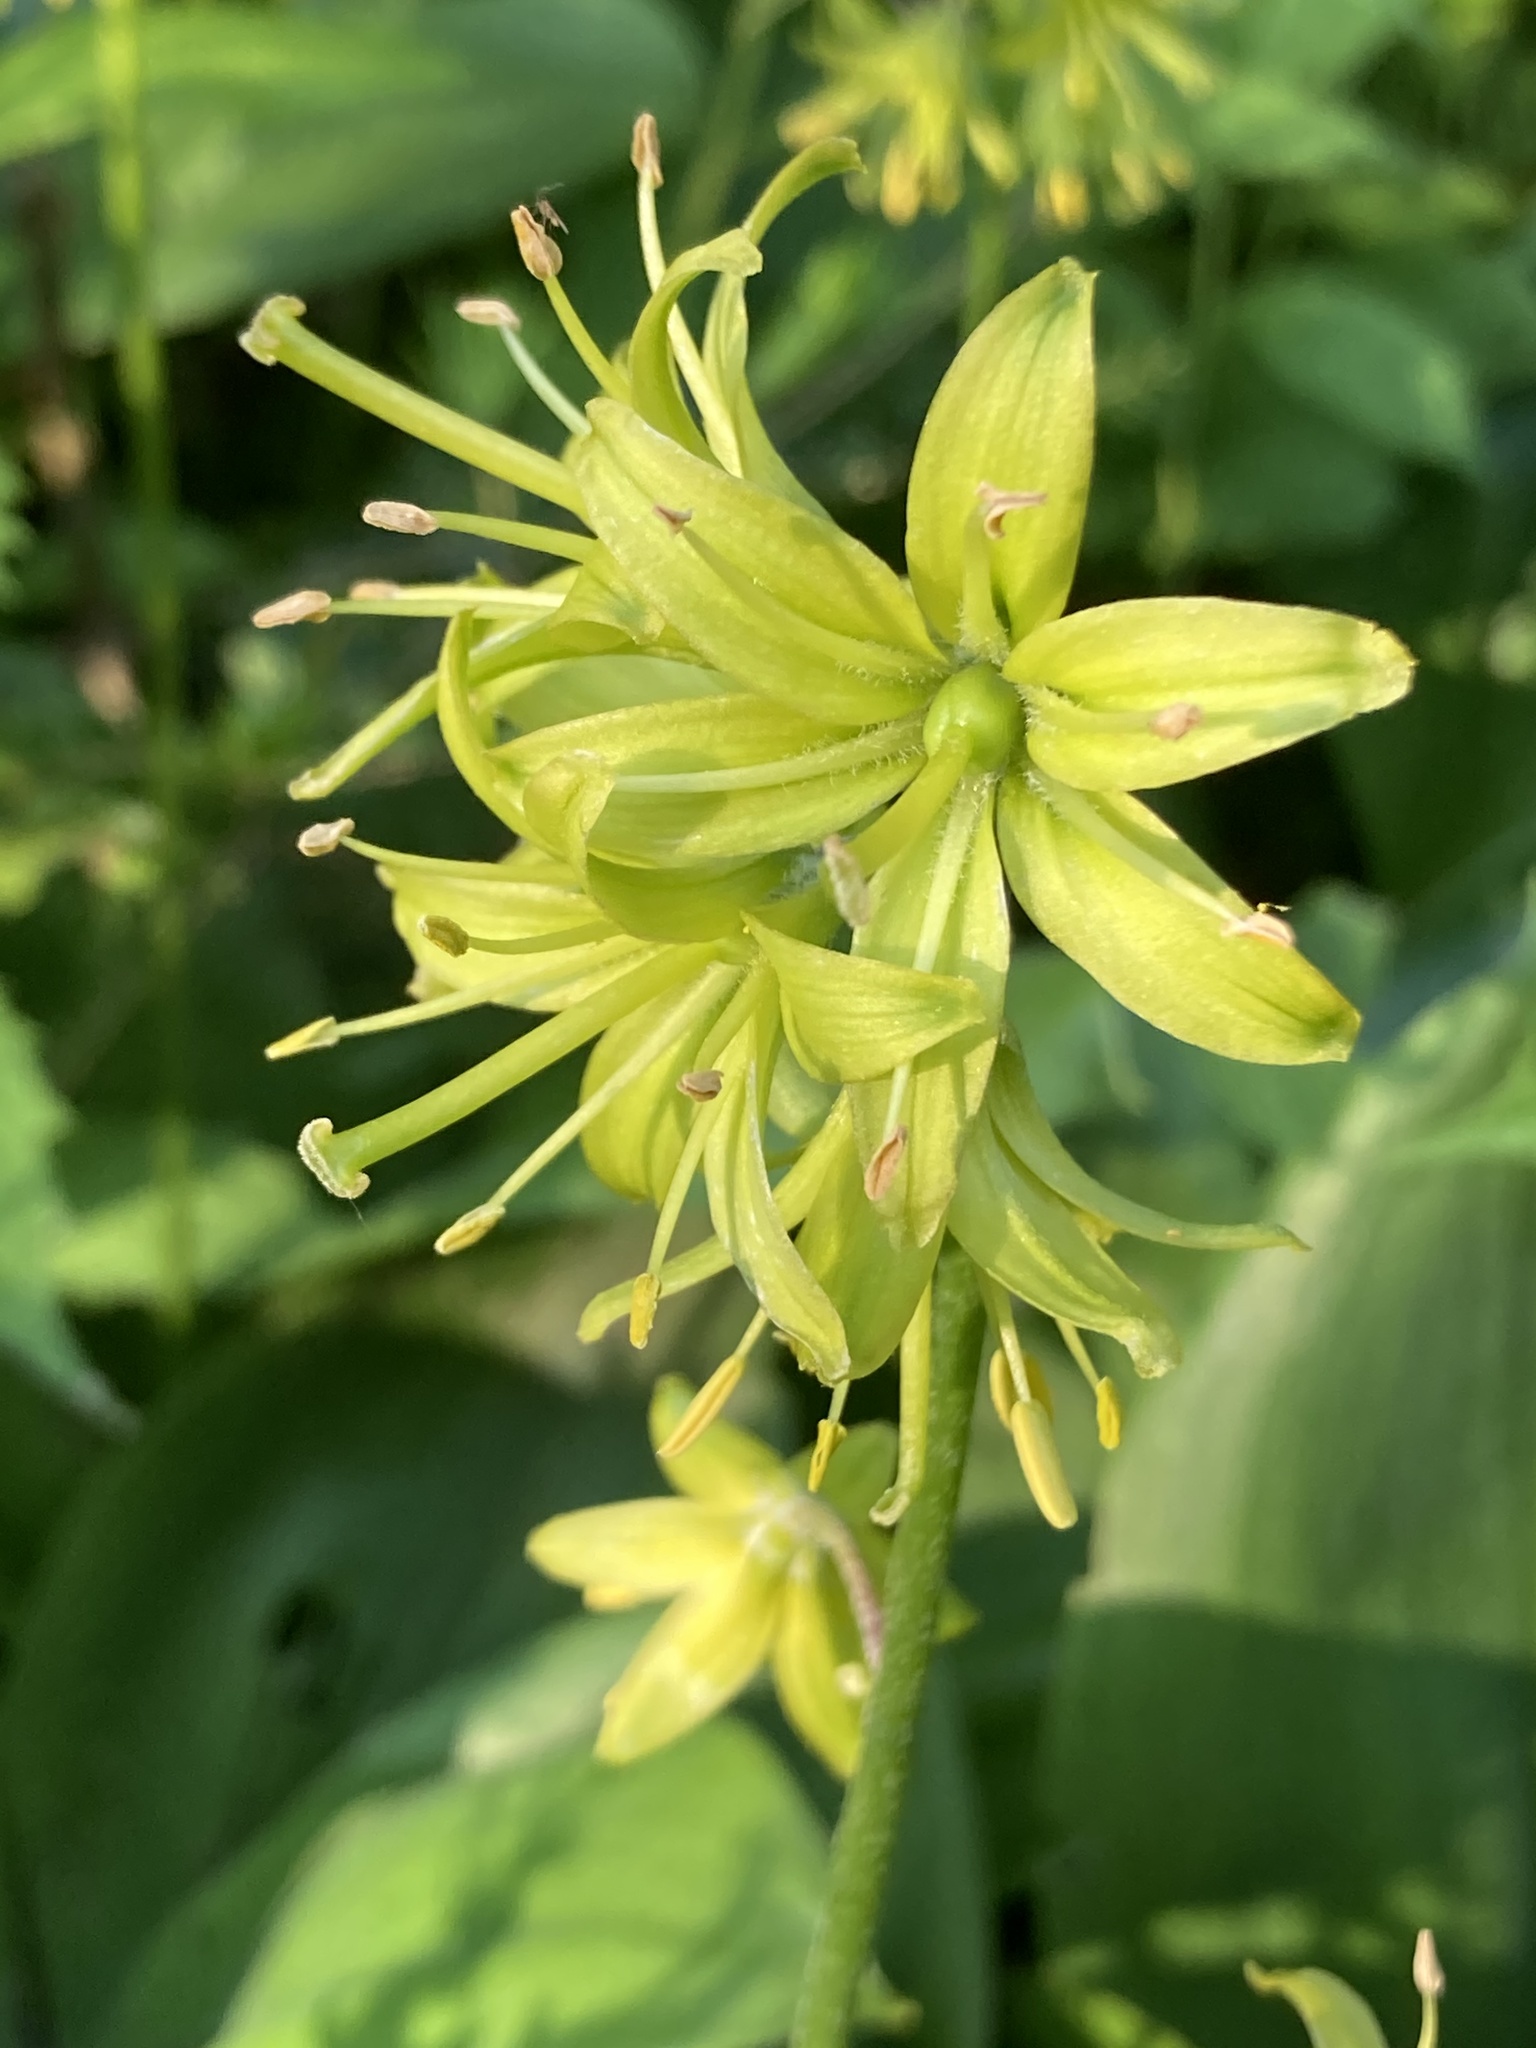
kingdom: Plantae
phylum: Tracheophyta
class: Liliopsida
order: Liliales
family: Liliaceae
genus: Clintonia
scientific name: Clintonia borealis
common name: Yellow clintonia
